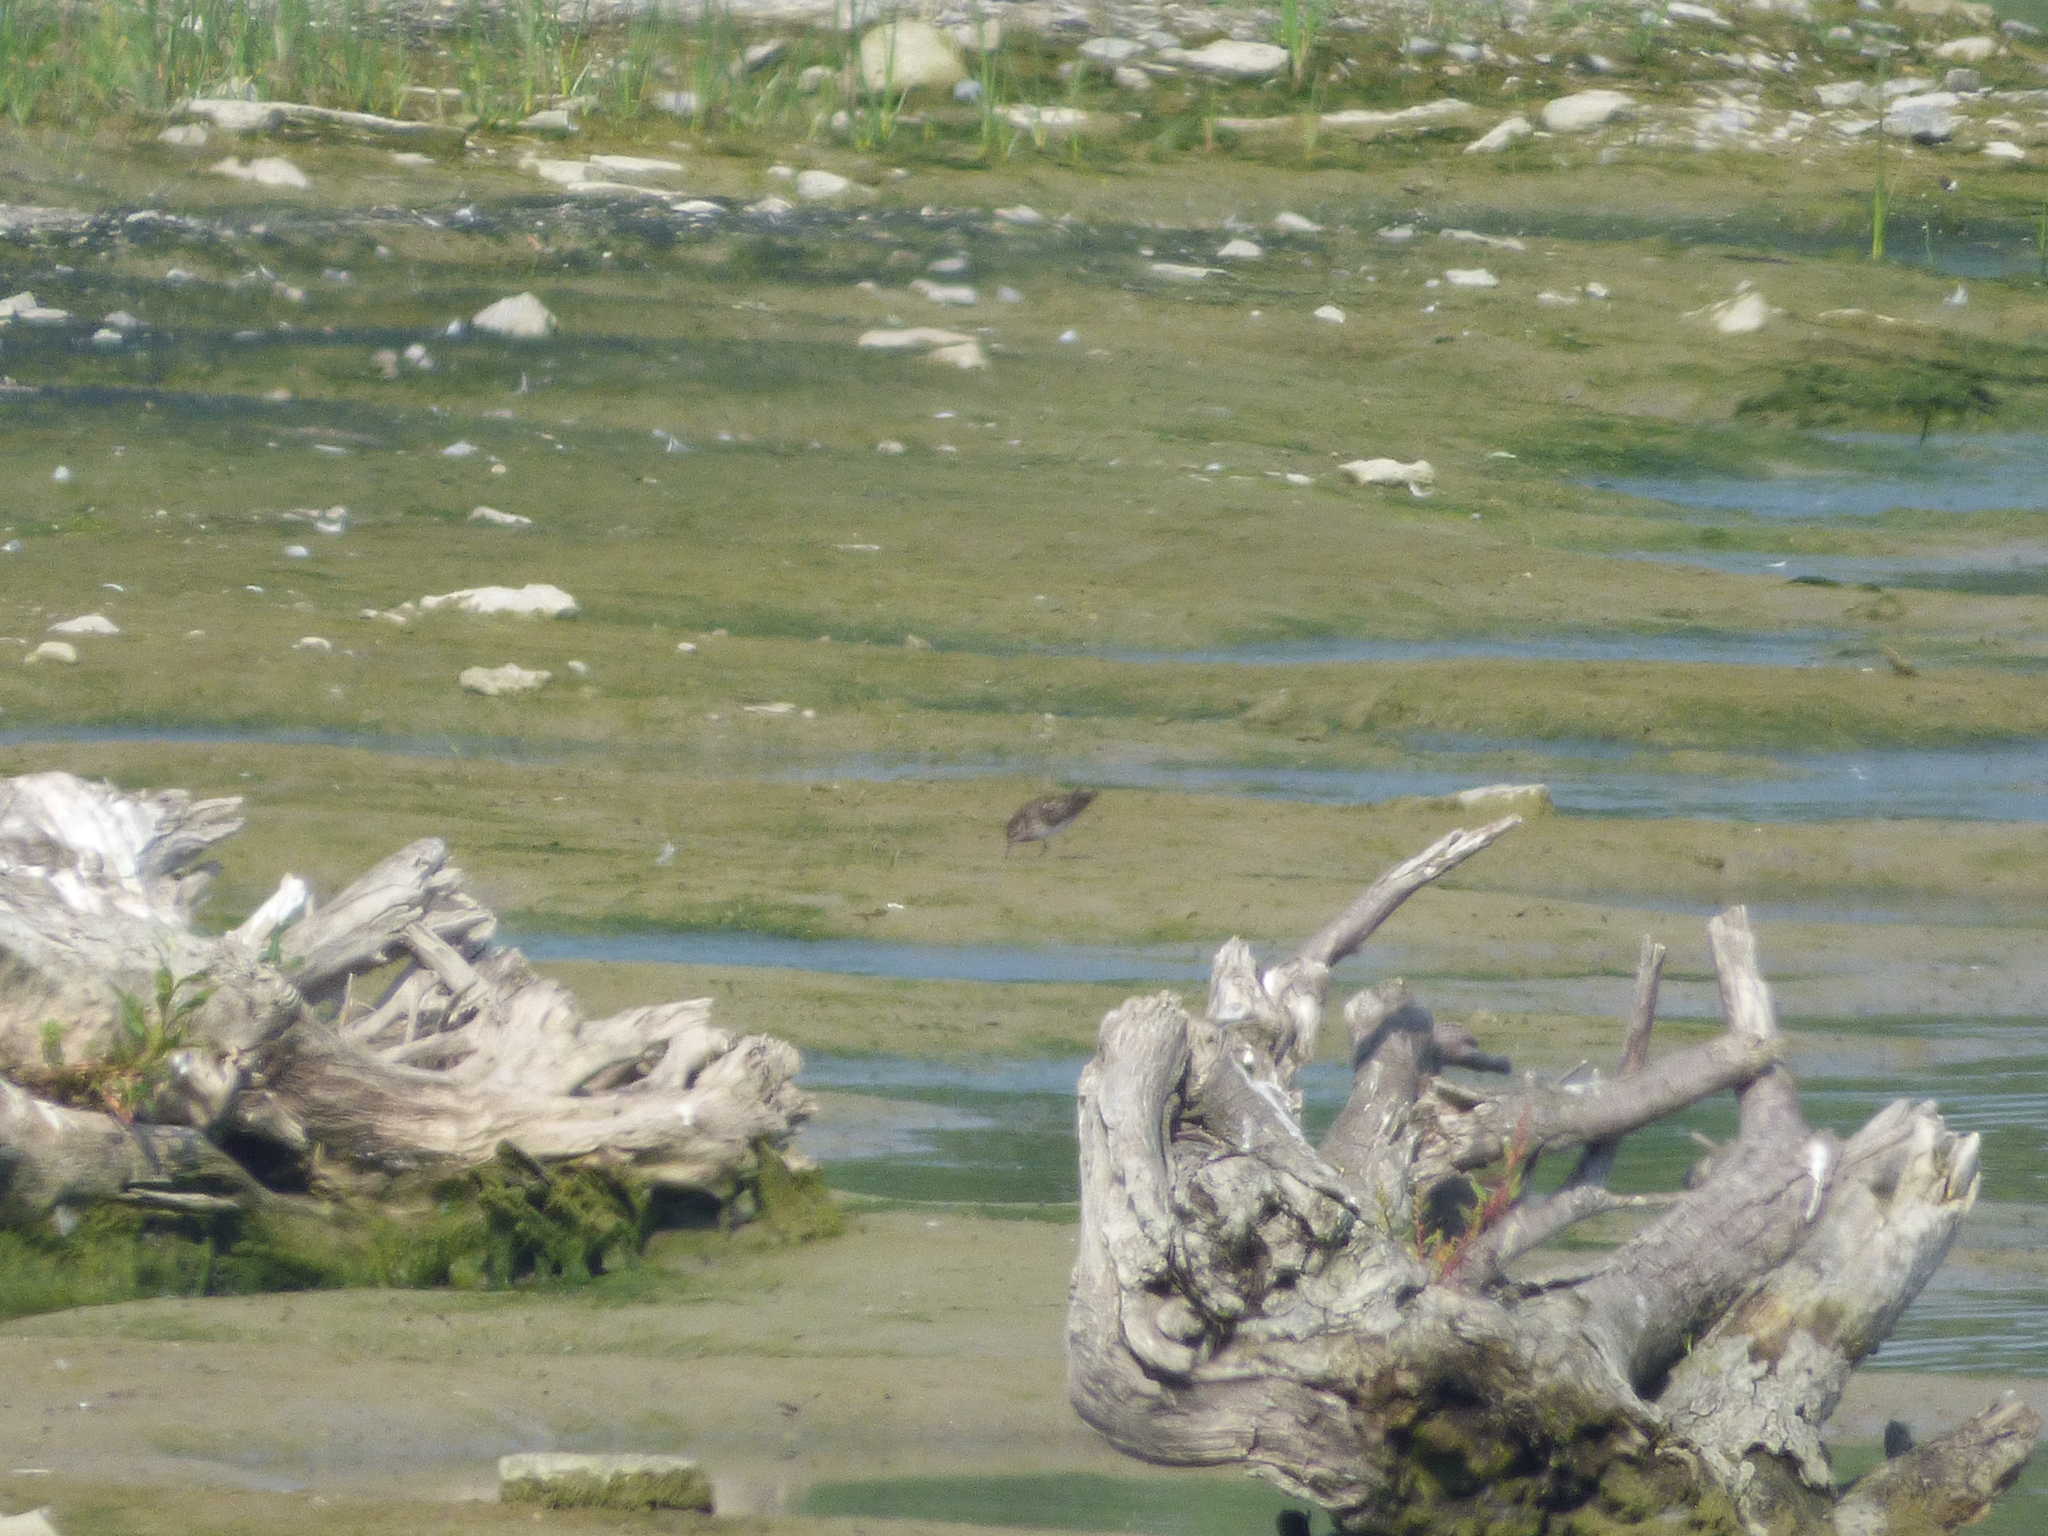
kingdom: Animalia
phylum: Chordata
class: Aves
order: Charadriiformes
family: Scolopacidae
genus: Calidris
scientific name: Calidris minutilla
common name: Least sandpiper
